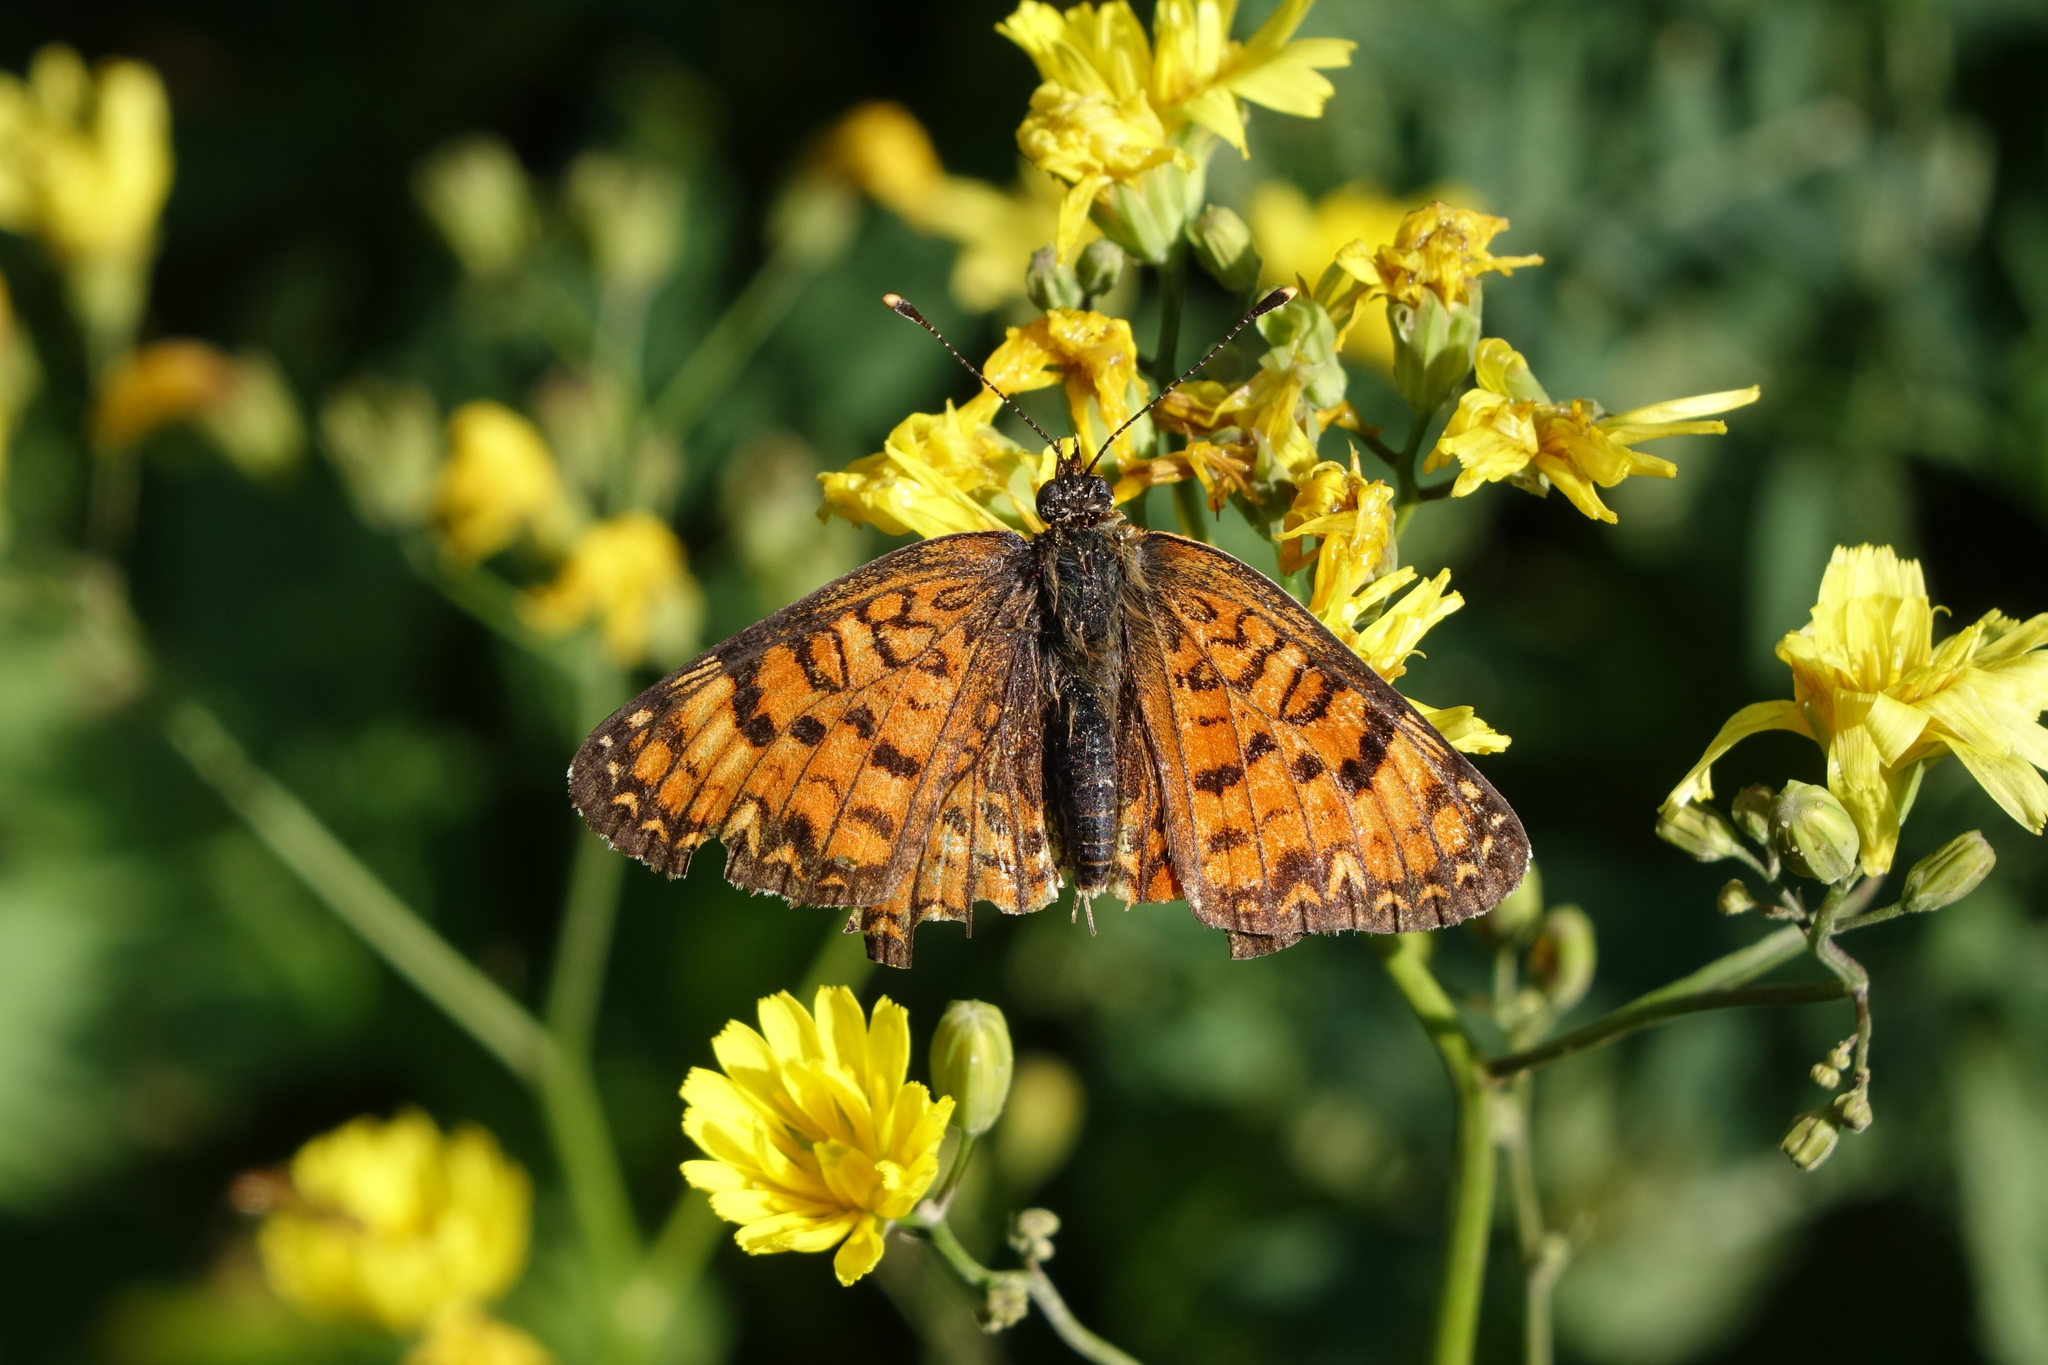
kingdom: Plantae
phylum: Tracheophyta
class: Magnoliopsida
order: Asterales
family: Asteraceae
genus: Lapsana
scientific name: Lapsana communis
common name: Nipplewort
